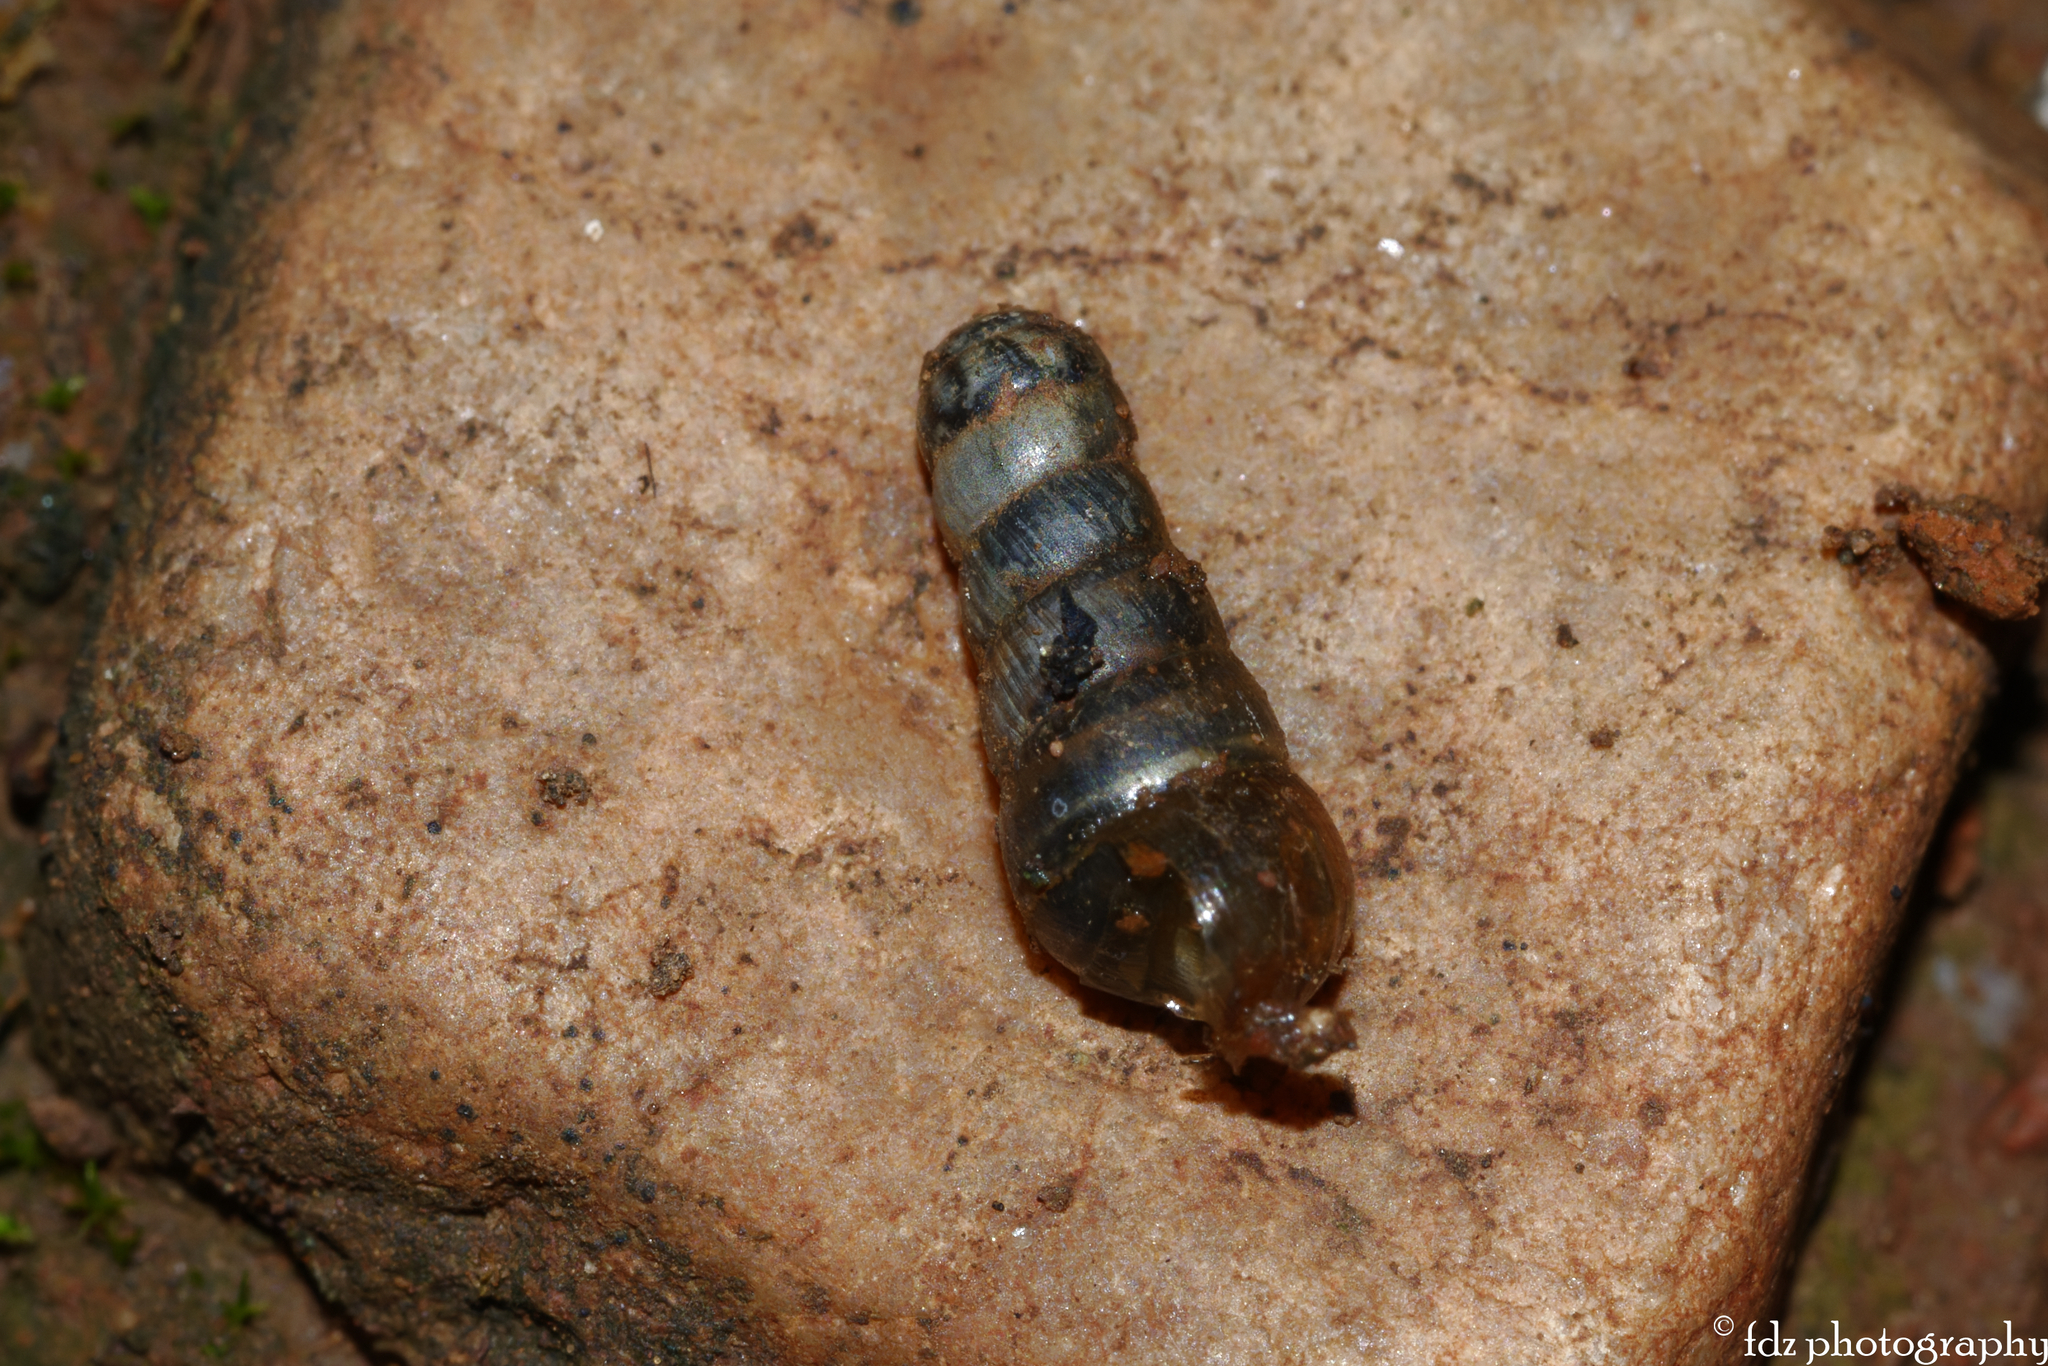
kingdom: Animalia
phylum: Mollusca
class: Gastropoda
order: Stylommatophora
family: Achatinidae
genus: Rumina
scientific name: Rumina decollata
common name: Decollate snail
